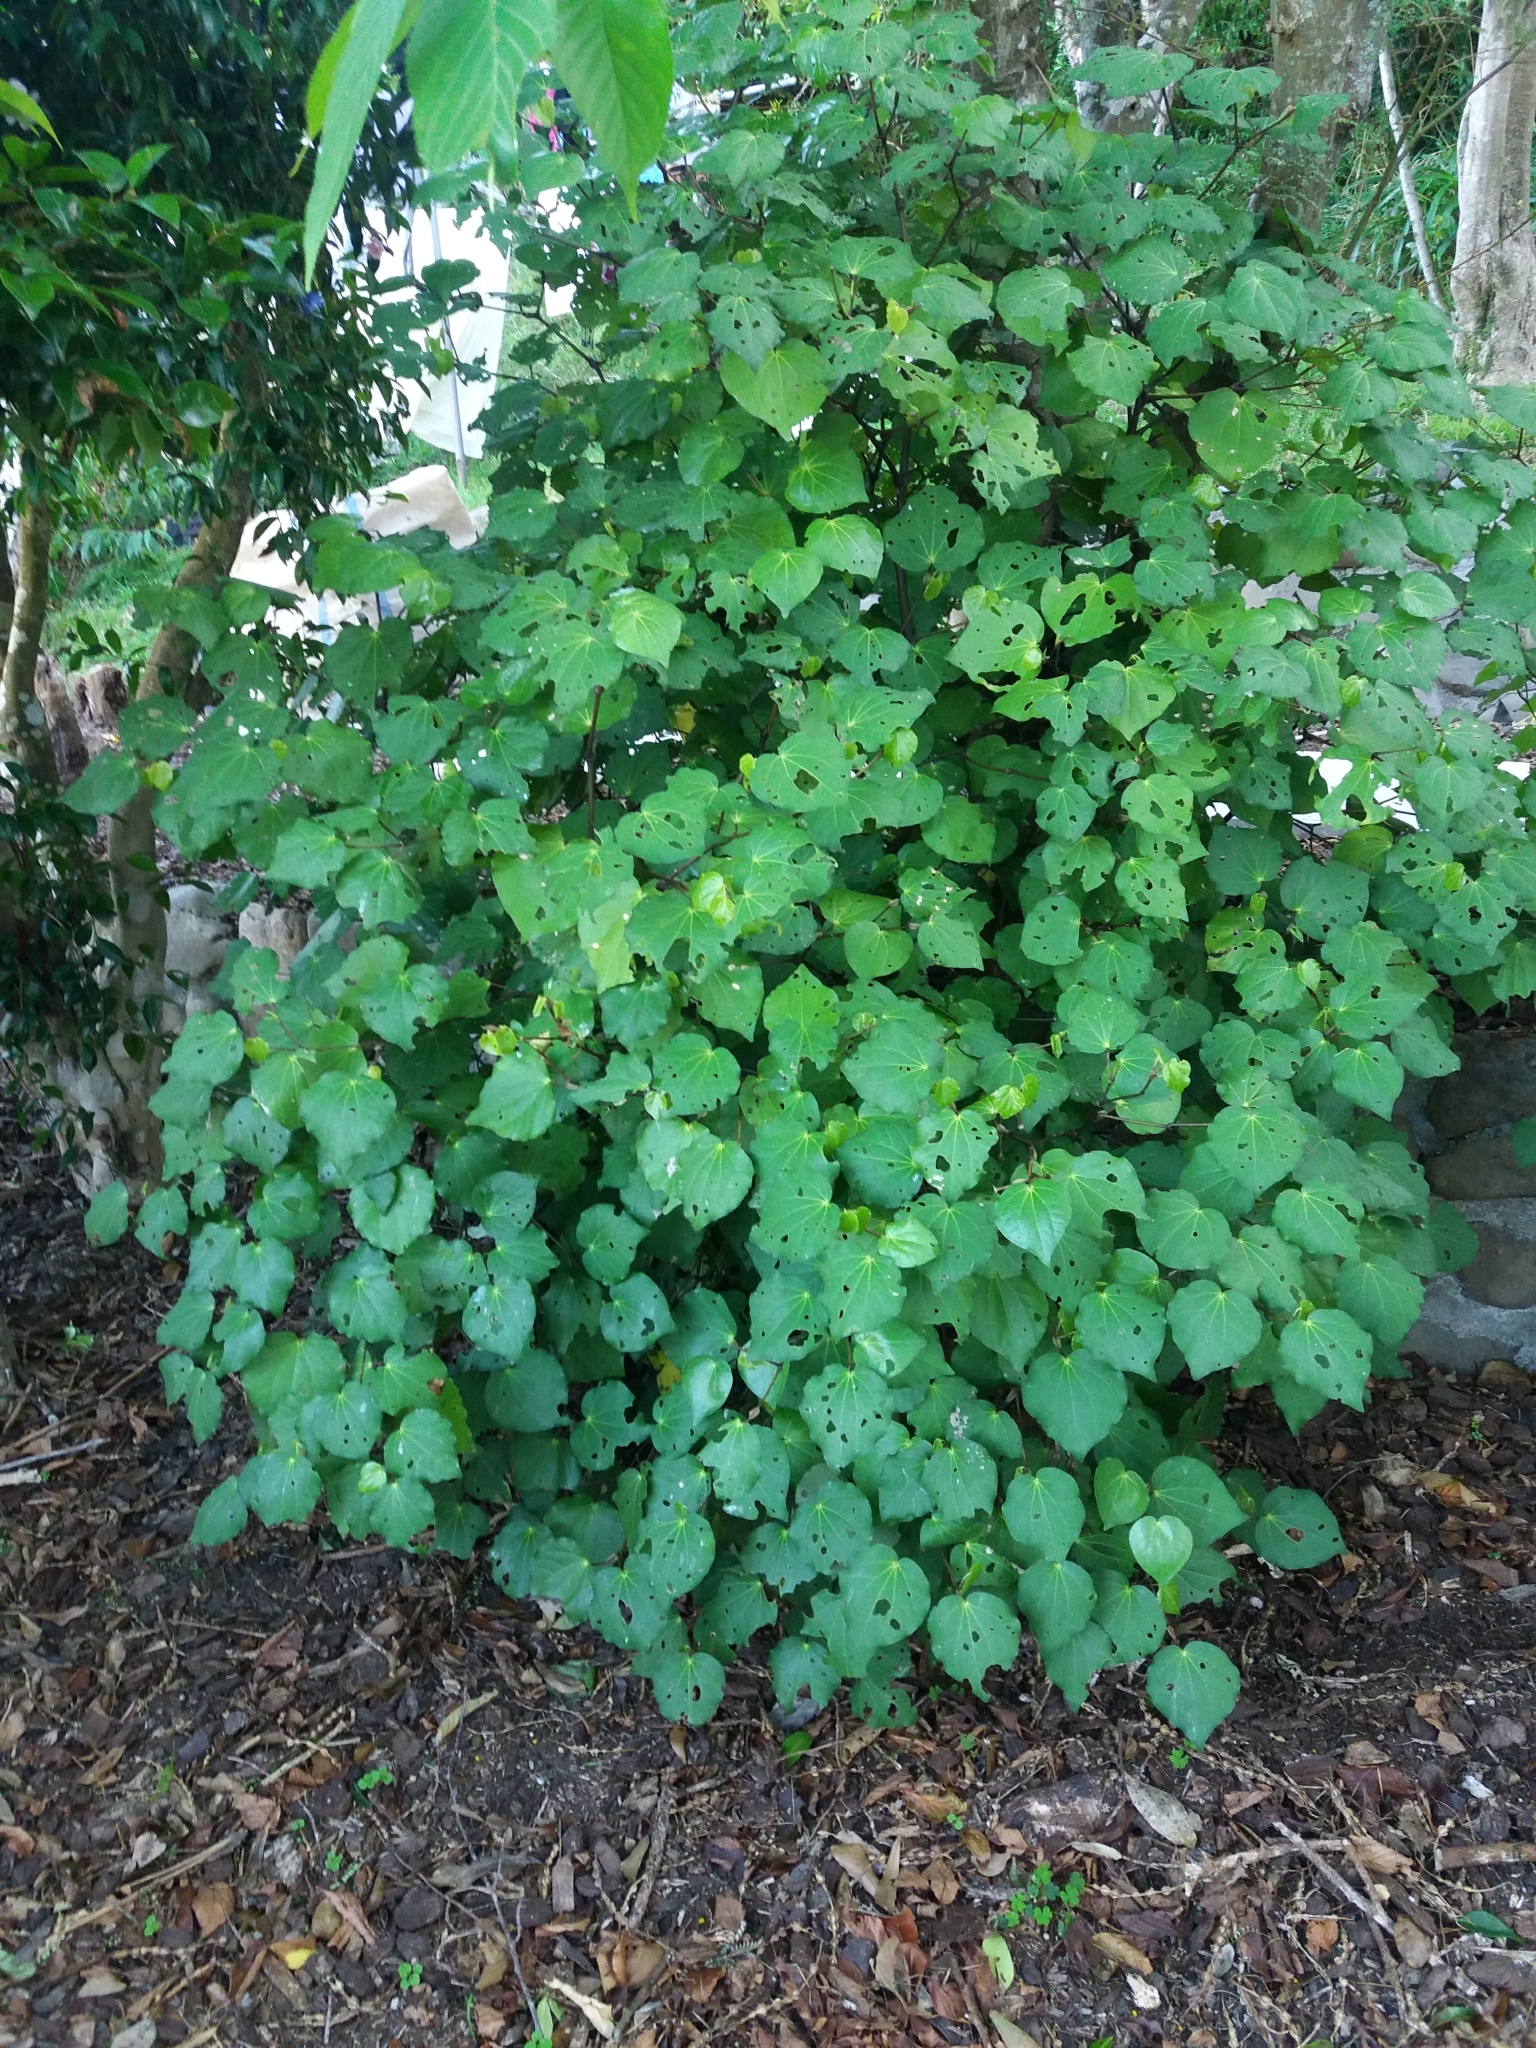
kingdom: Plantae
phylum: Tracheophyta
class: Magnoliopsida
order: Piperales
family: Piperaceae
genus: Macropiper
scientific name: Macropiper excelsum
